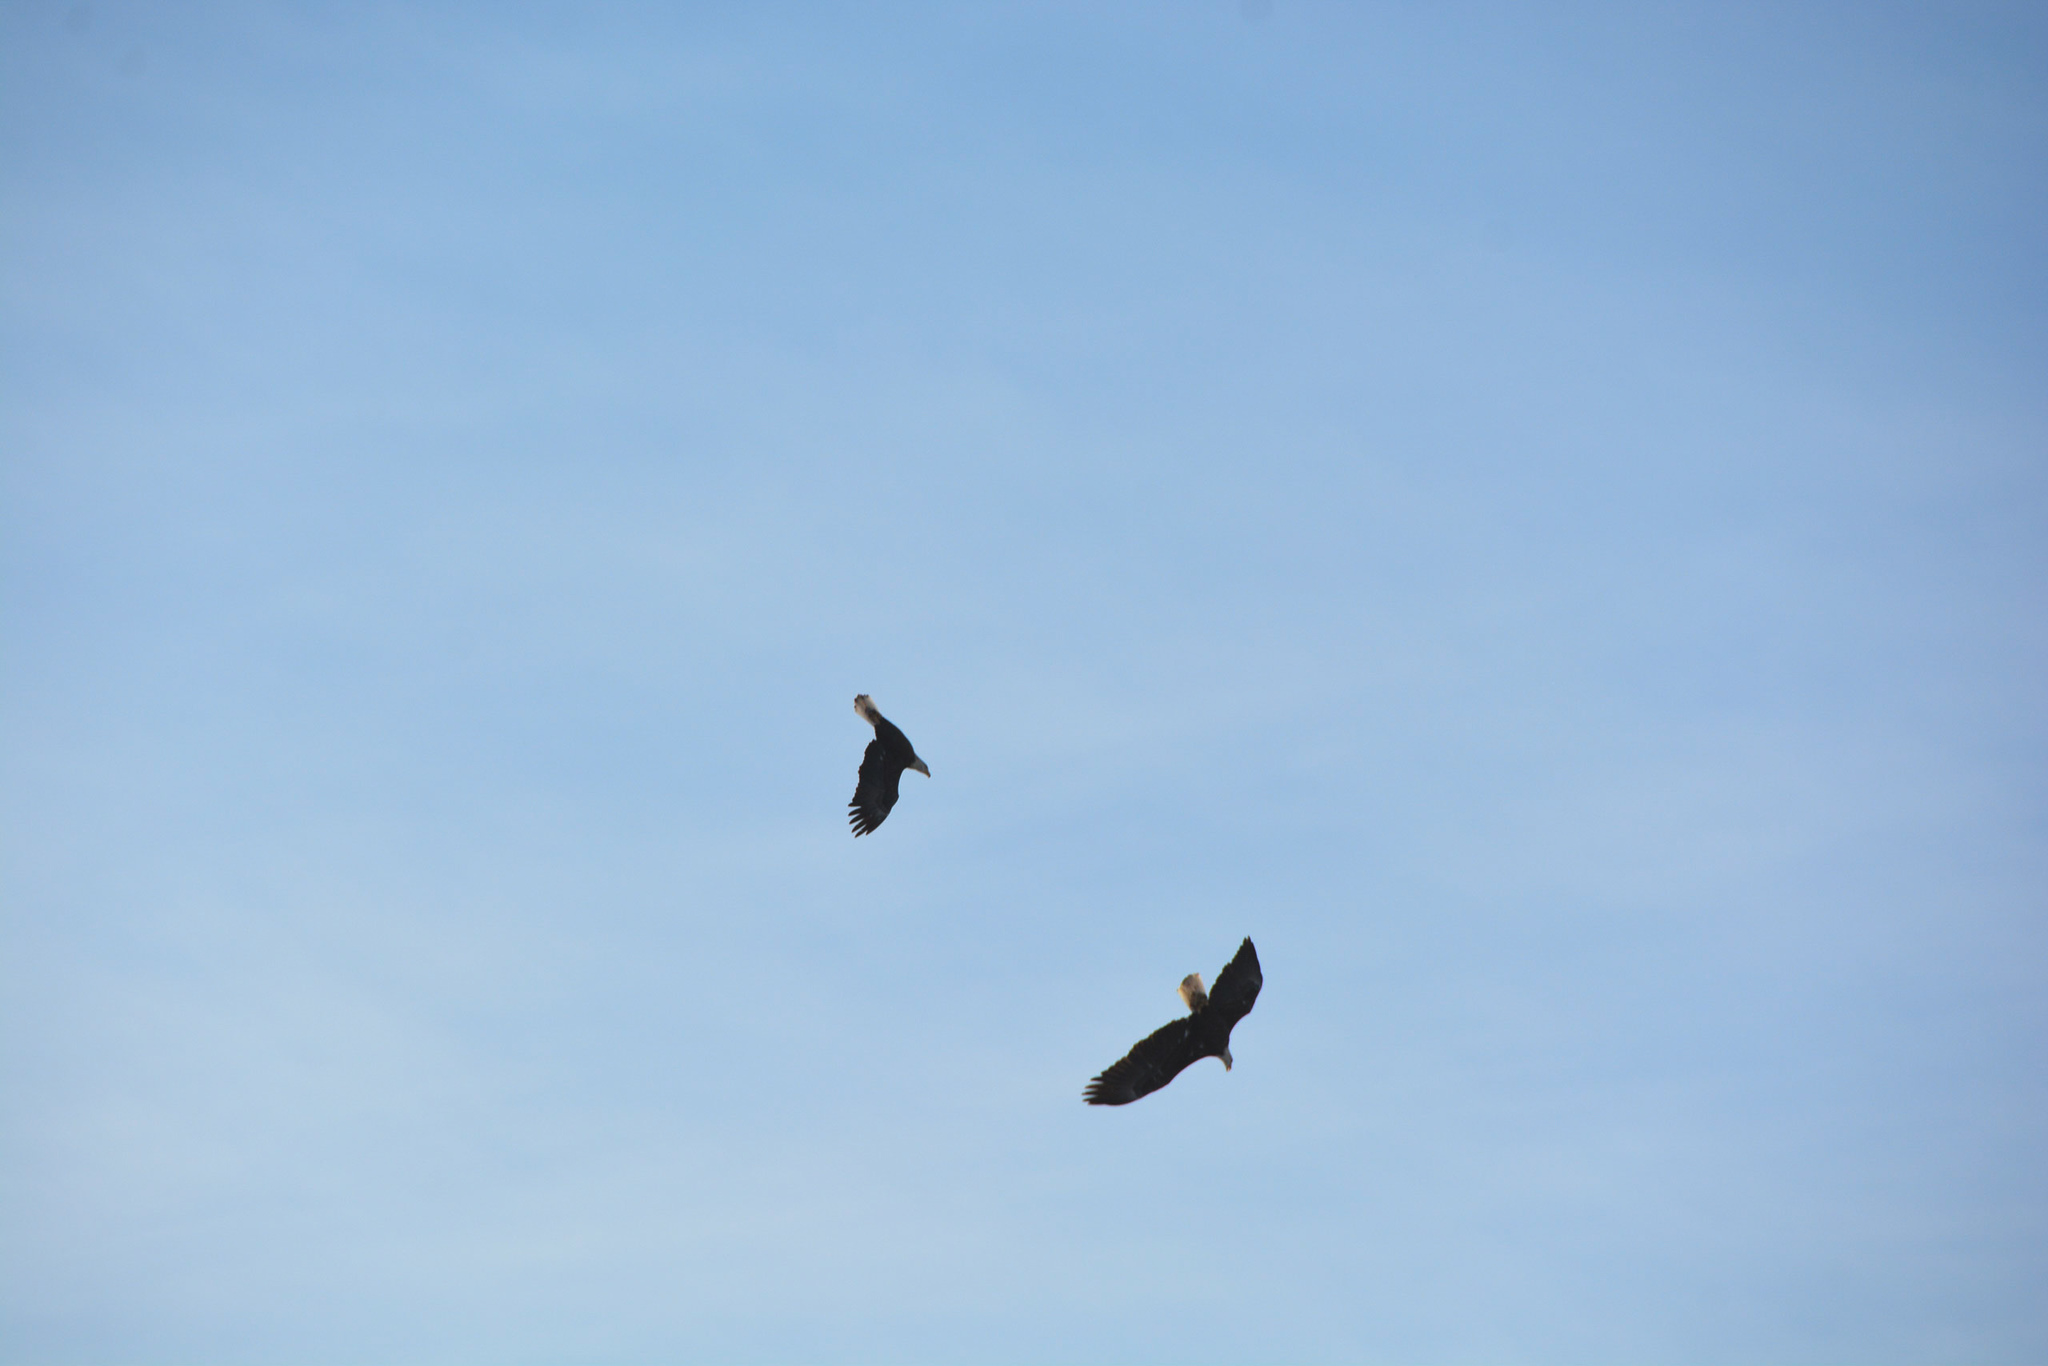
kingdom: Animalia
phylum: Chordata
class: Aves
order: Accipitriformes
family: Accipitridae
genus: Haliaeetus
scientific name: Haliaeetus leucocephalus
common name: Bald eagle
